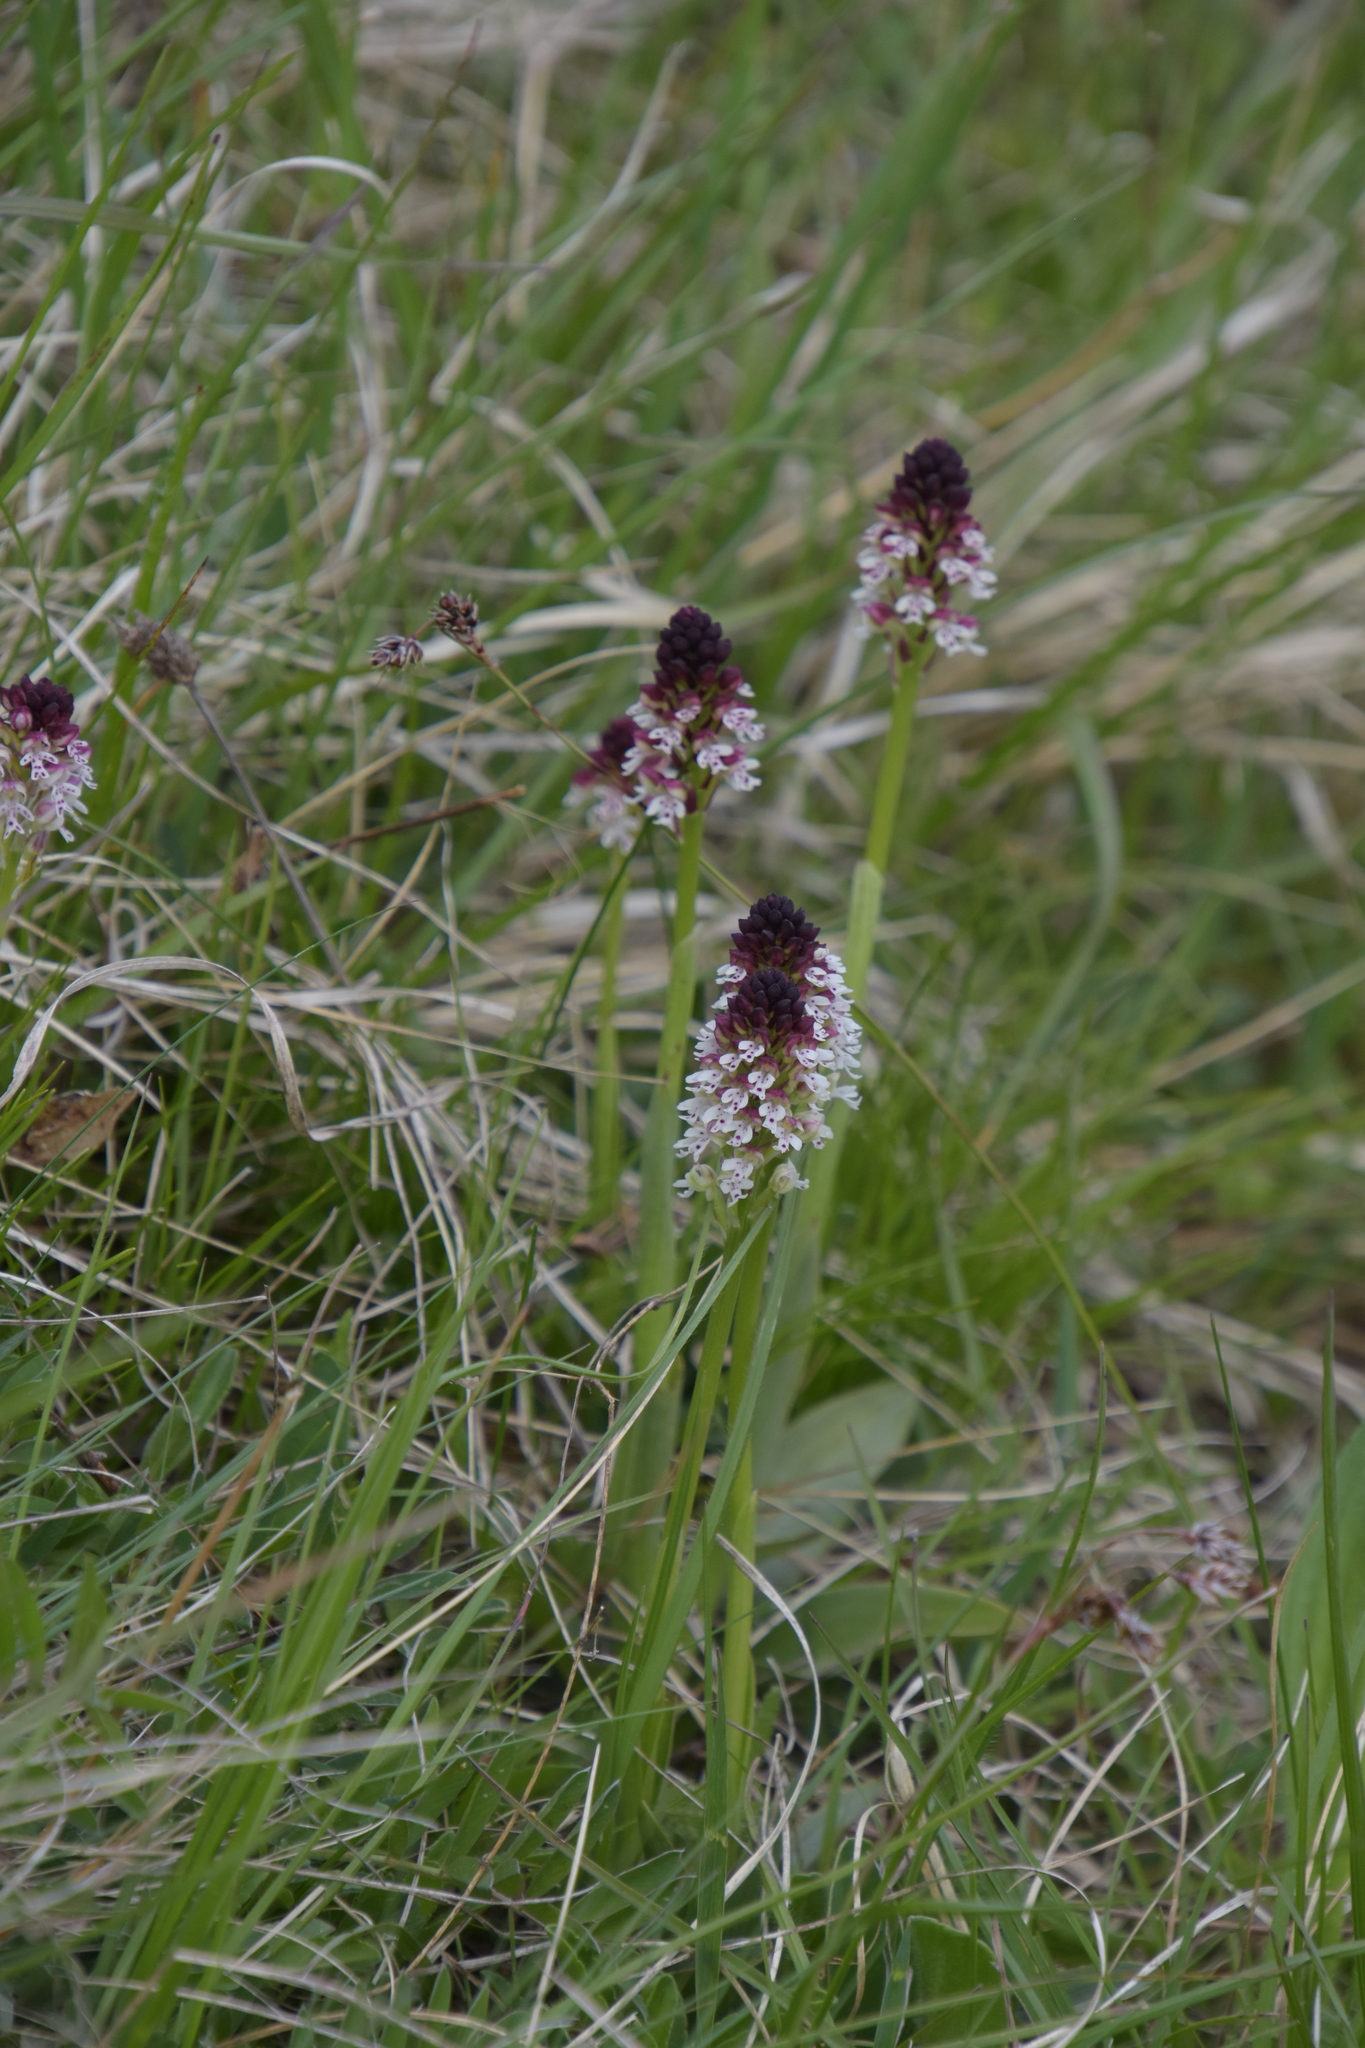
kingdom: Plantae
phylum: Tracheophyta
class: Liliopsida
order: Asparagales
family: Orchidaceae
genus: Neotinea
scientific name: Neotinea ustulata
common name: Burnt orchid
